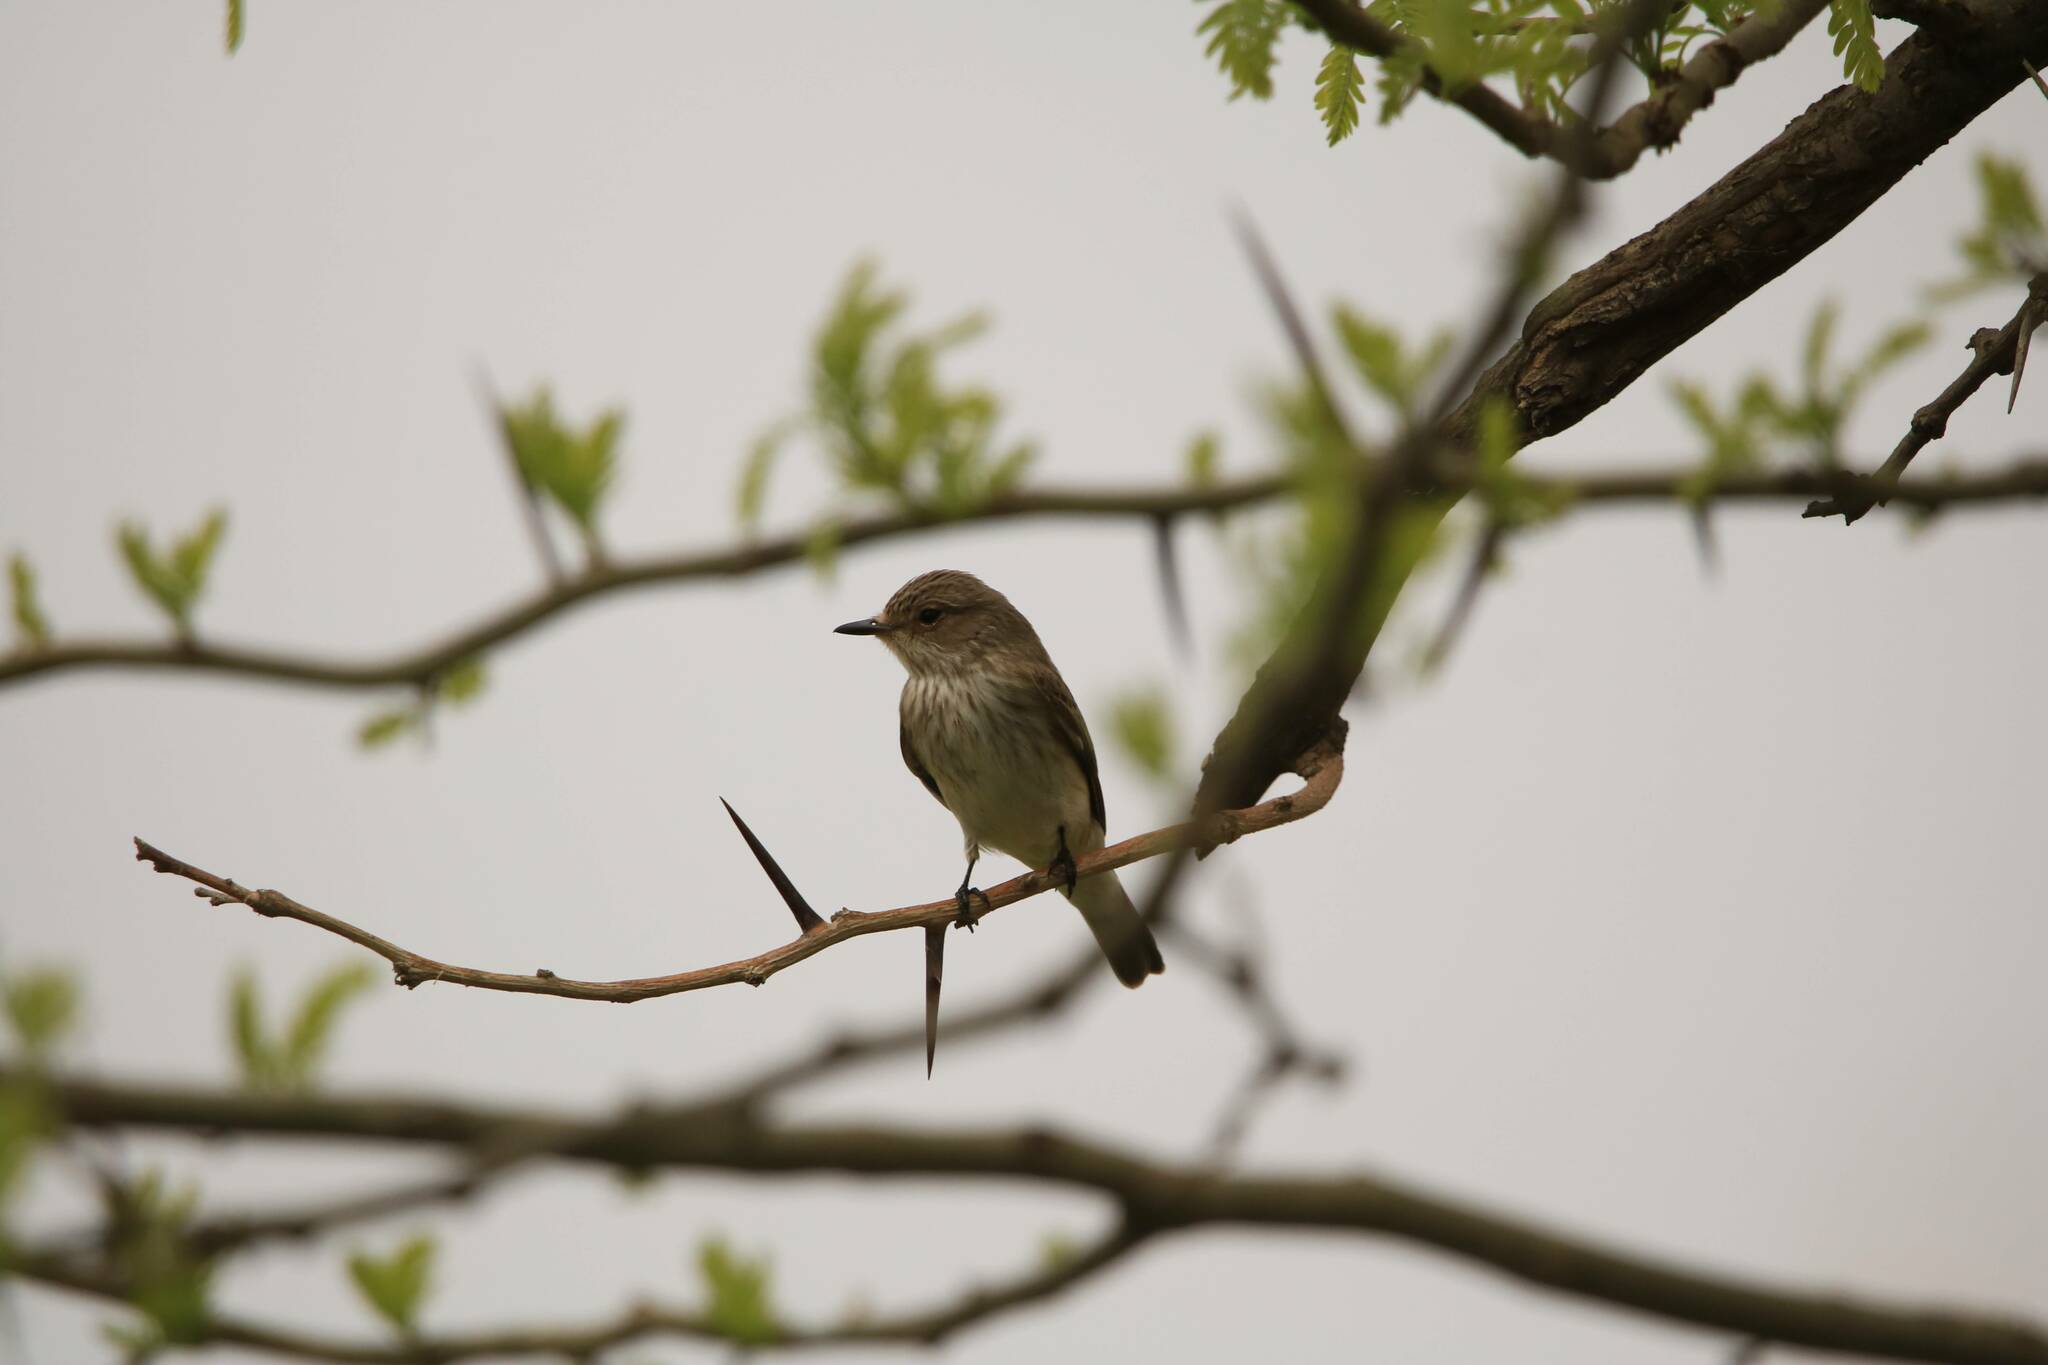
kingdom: Animalia
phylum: Chordata
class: Aves
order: Passeriformes
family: Muscicapidae
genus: Muscicapa
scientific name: Muscicapa striata
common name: Spotted flycatcher
